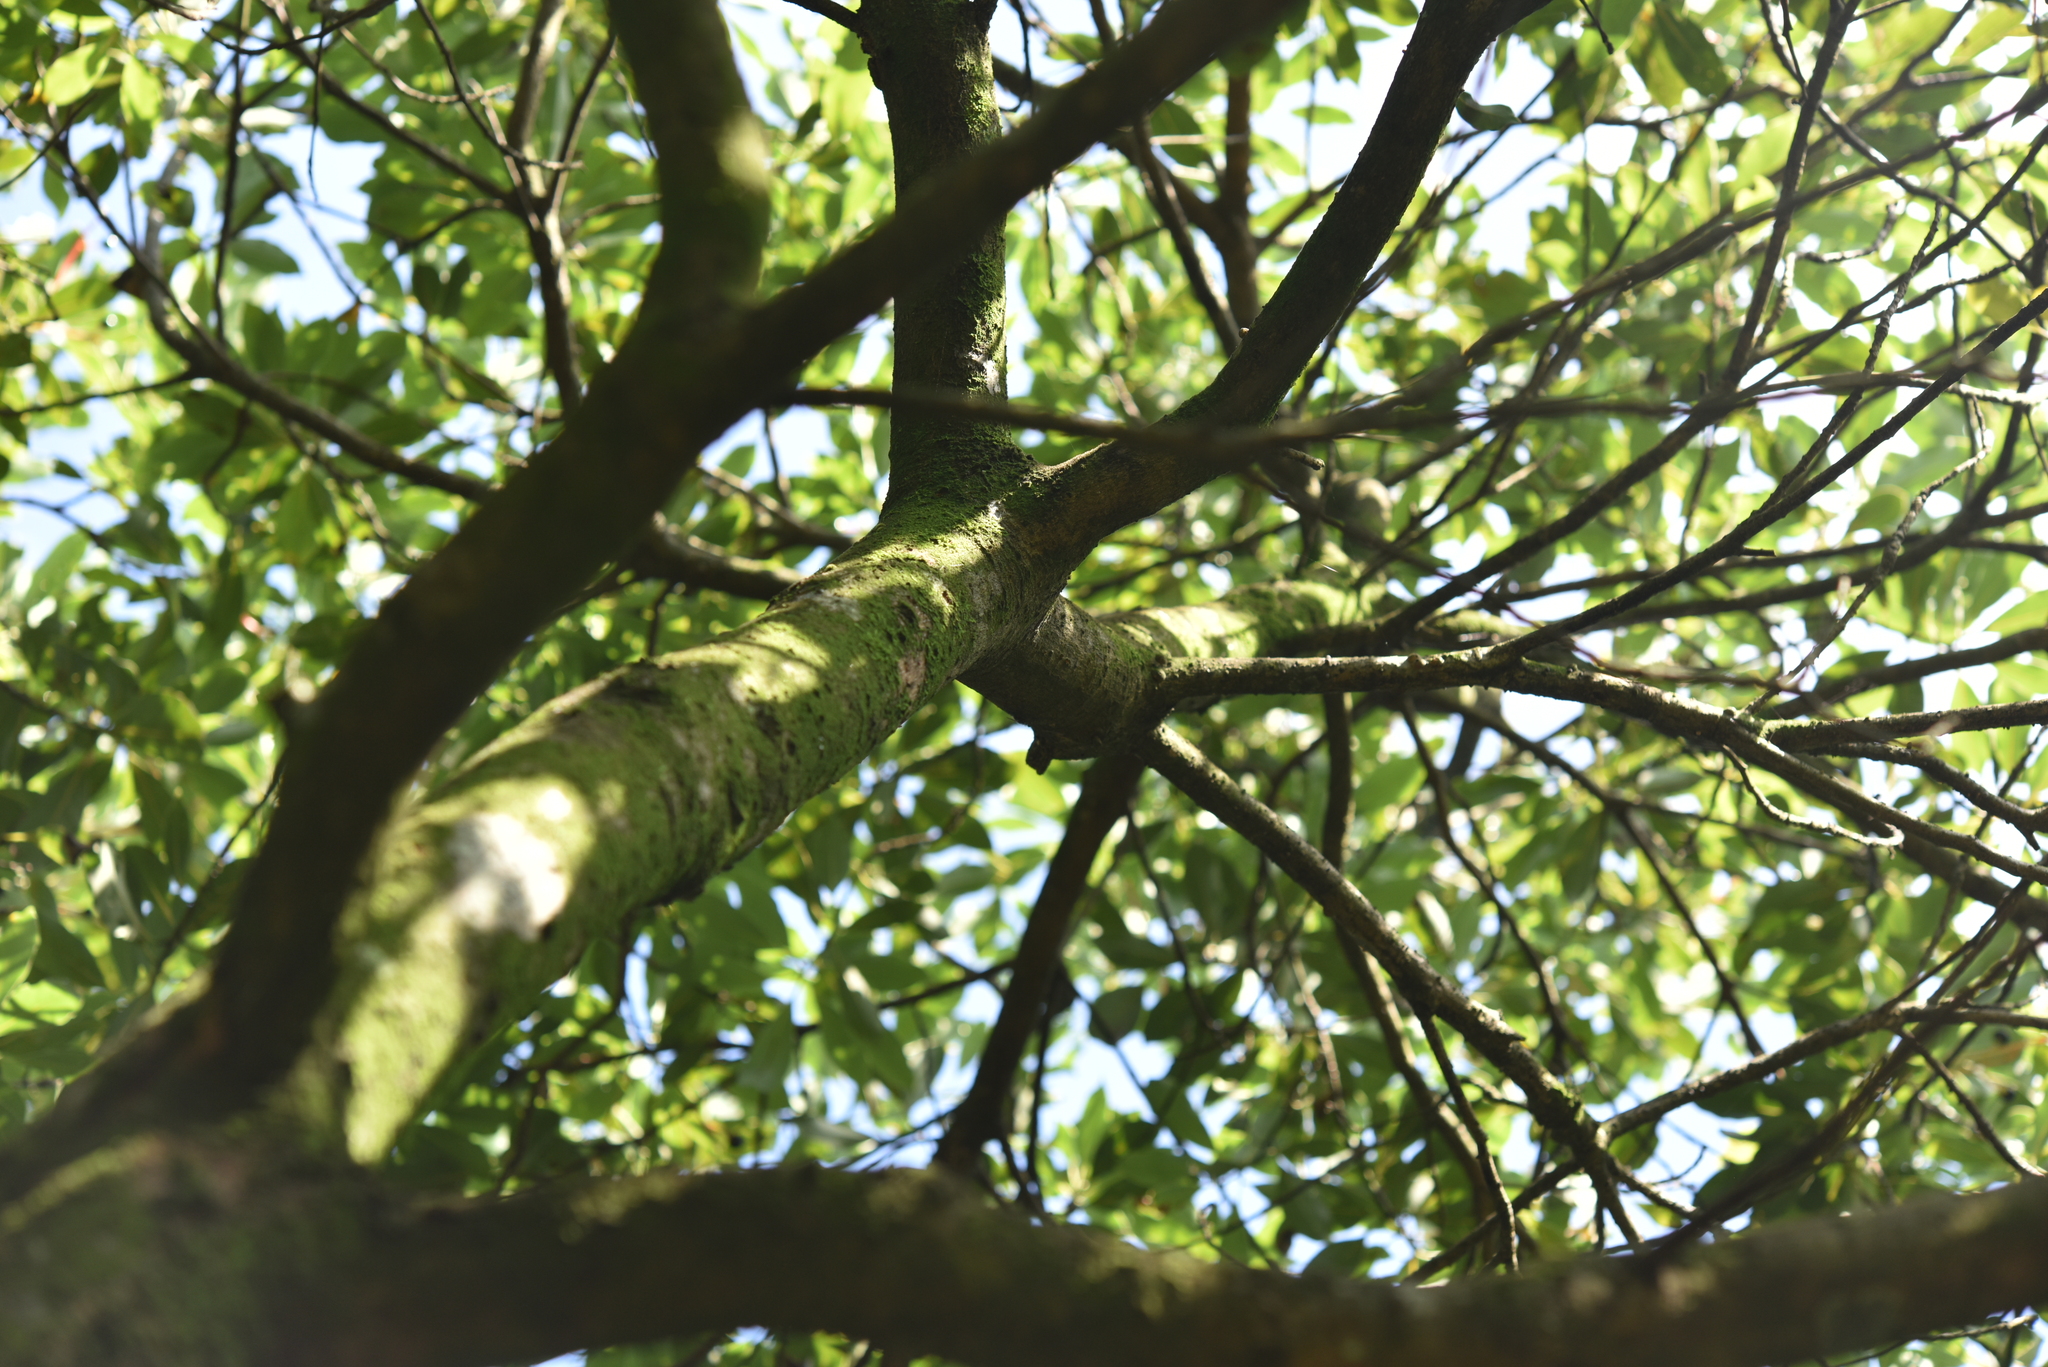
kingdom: Plantae
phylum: Tracheophyta
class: Magnoliopsida
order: Laurales
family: Lauraceae
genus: Machilus
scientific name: Machilus thunbergii
